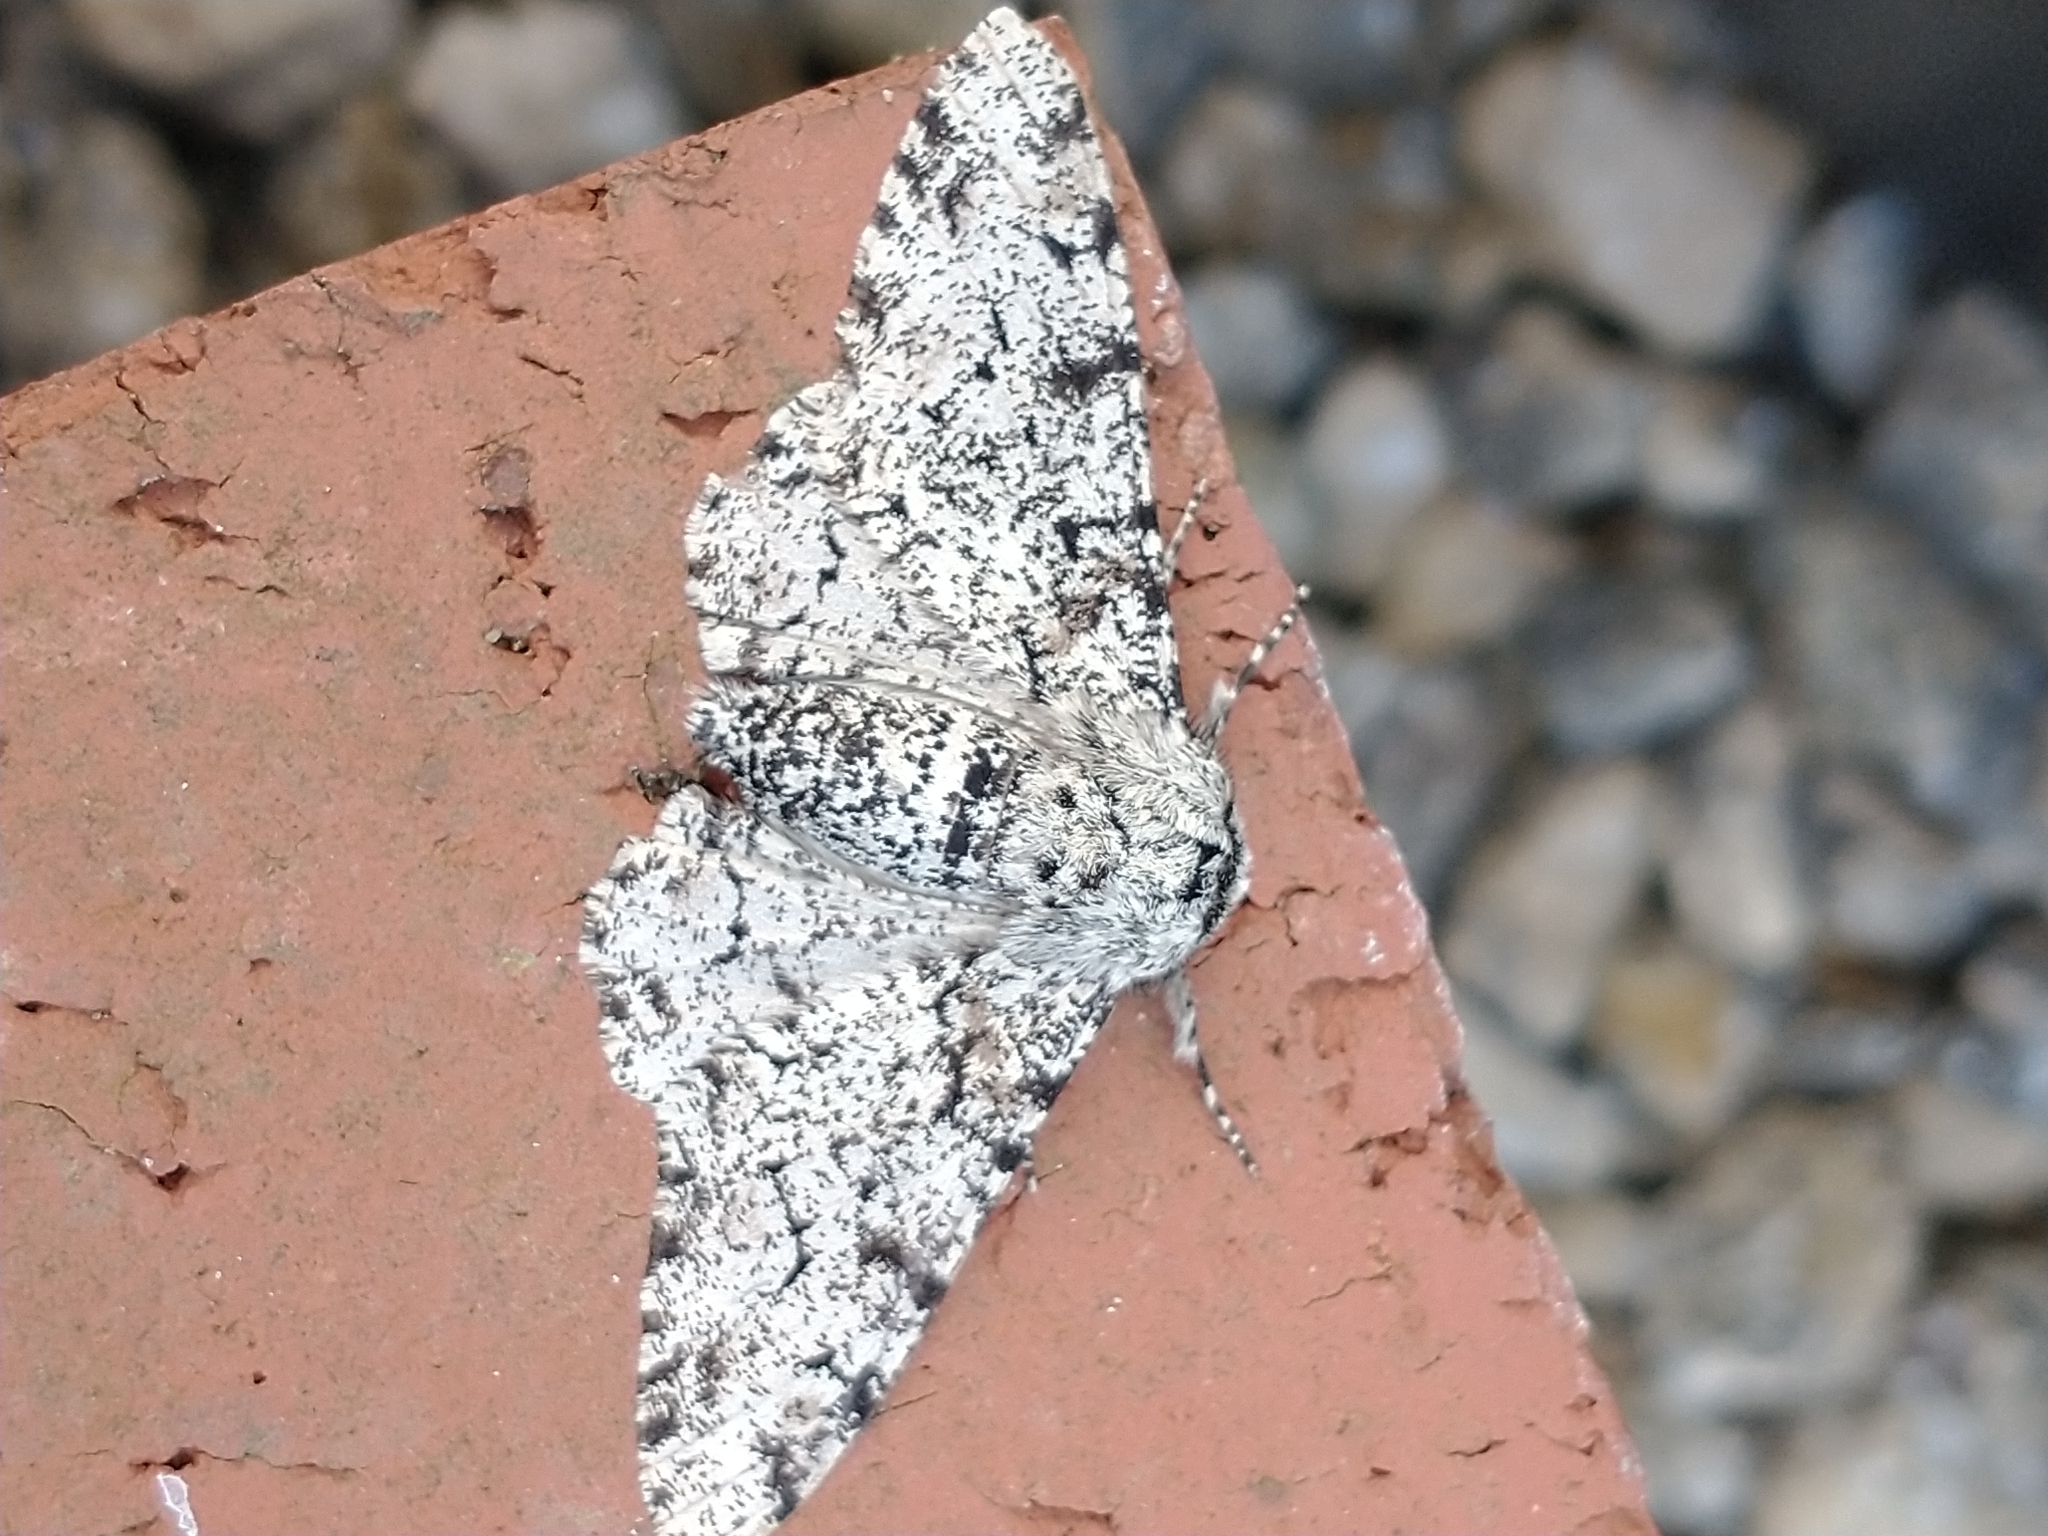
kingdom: Animalia
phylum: Arthropoda
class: Insecta
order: Lepidoptera
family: Geometridae
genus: Biston
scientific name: Biston betularia
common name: Peppered moth
